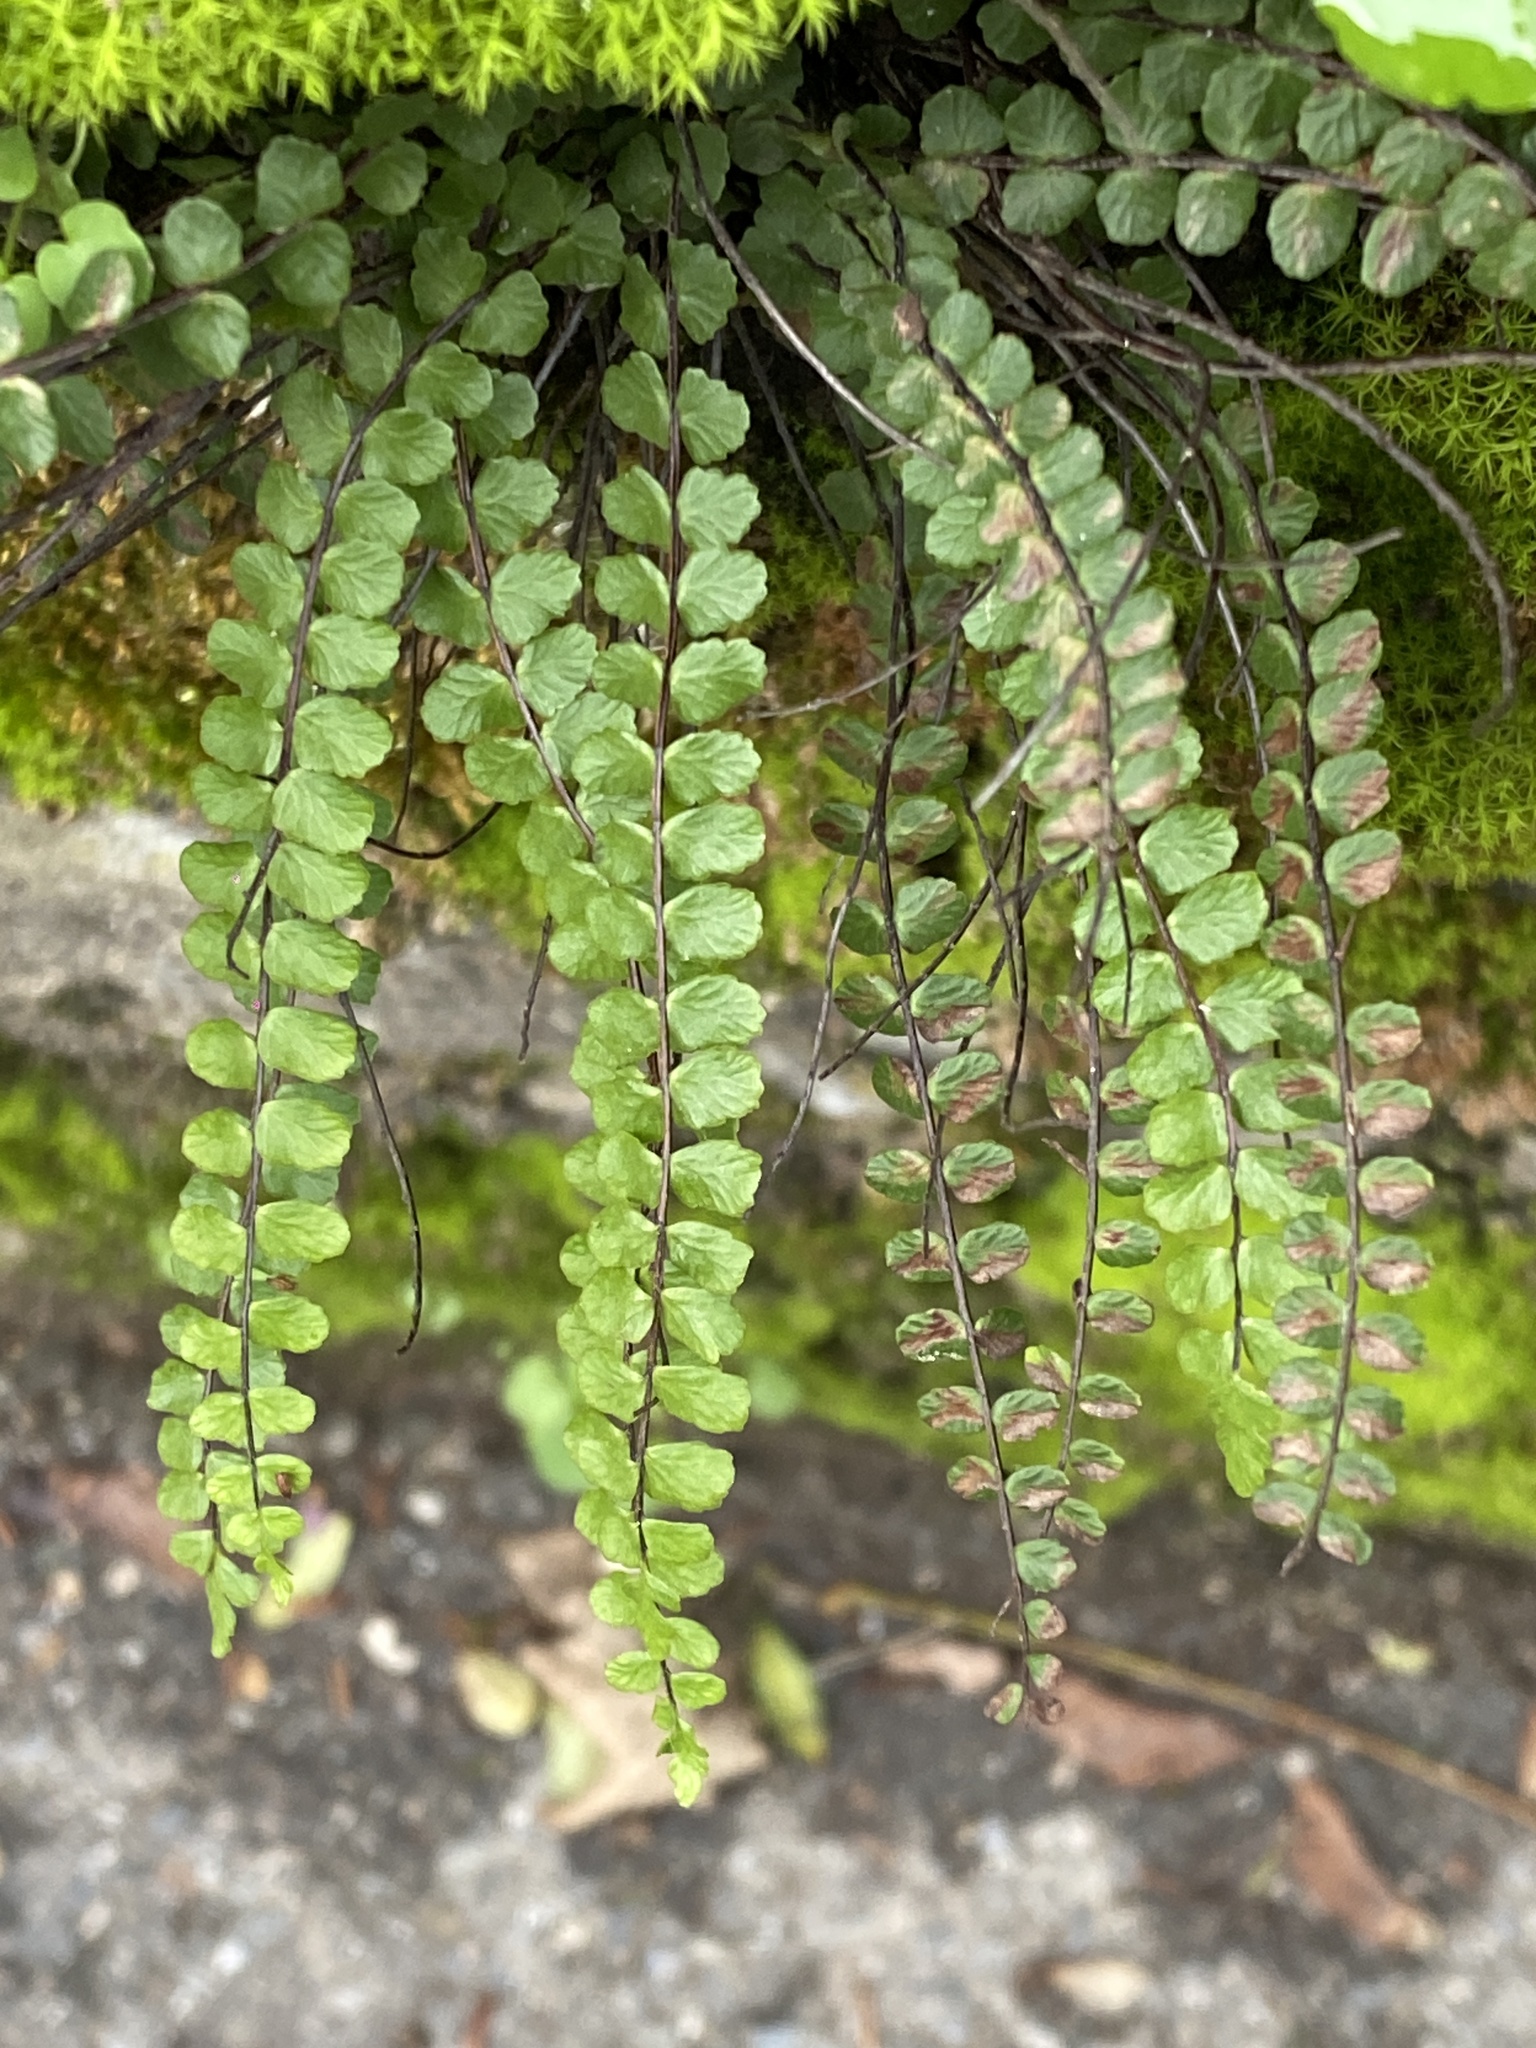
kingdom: Plantae
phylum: Tracheophyta
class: Polypodiopsida
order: Polypodiales
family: Aspleniaceae
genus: Asplenium
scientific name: Asplenium trichomanes
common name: Maidenhair spleenwort
